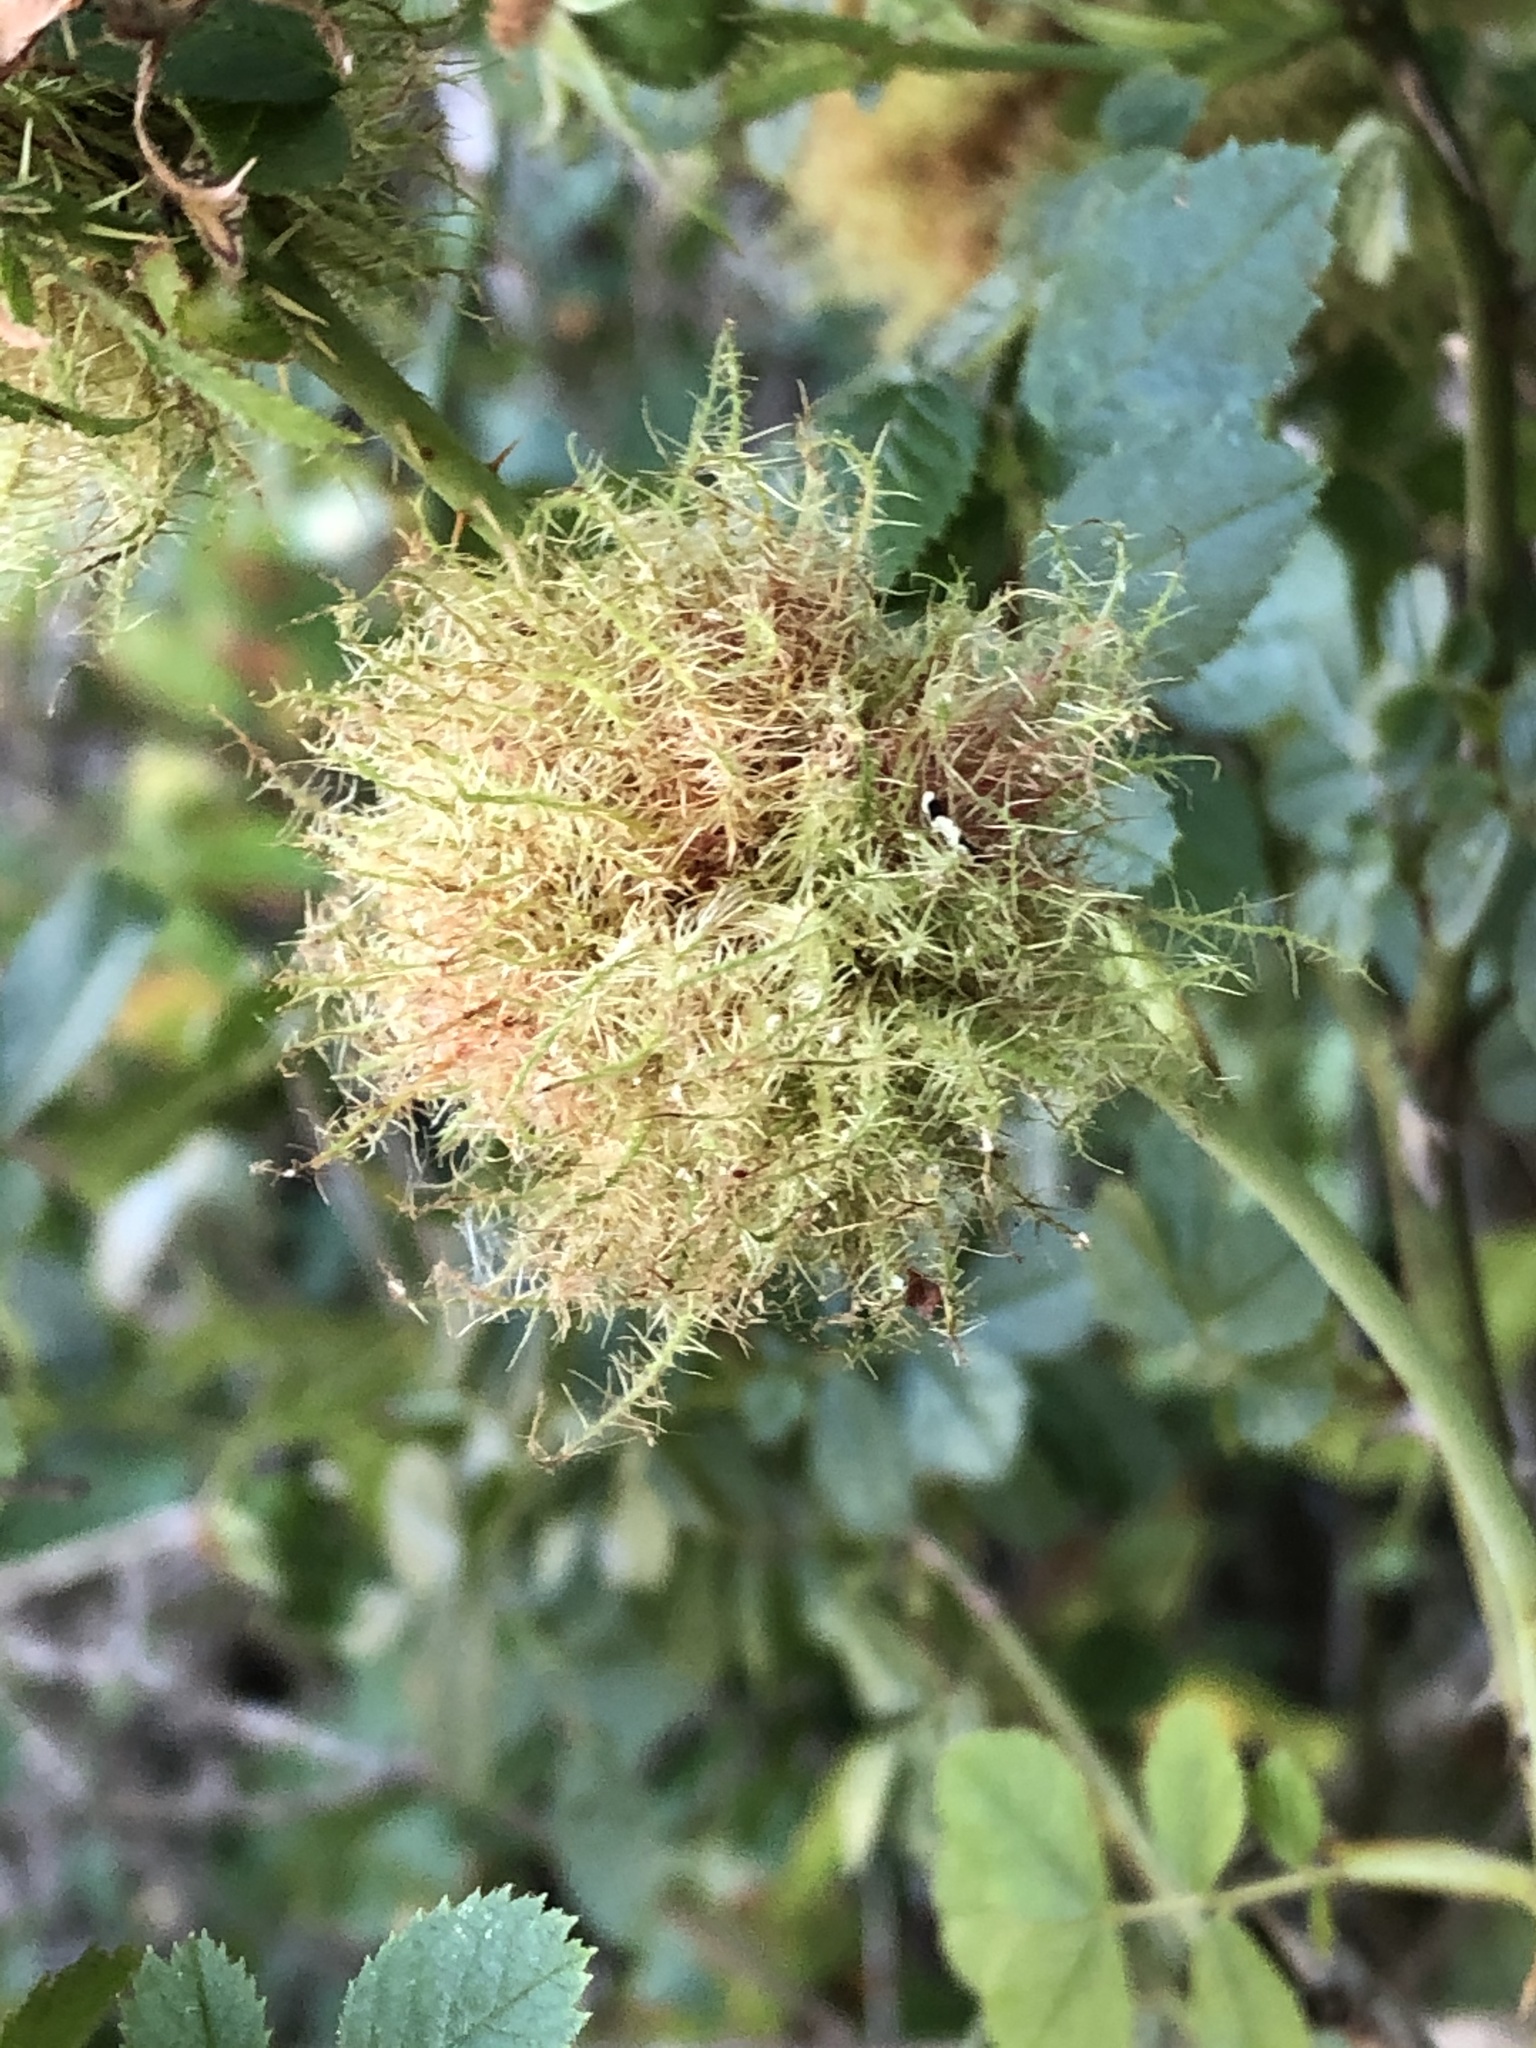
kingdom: Animalia
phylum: Arthropoda
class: Insecta
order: Hymenoptera
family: Cynipidae
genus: Diplolepis
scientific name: Diplolepis rosae
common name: Bedeguar gall
